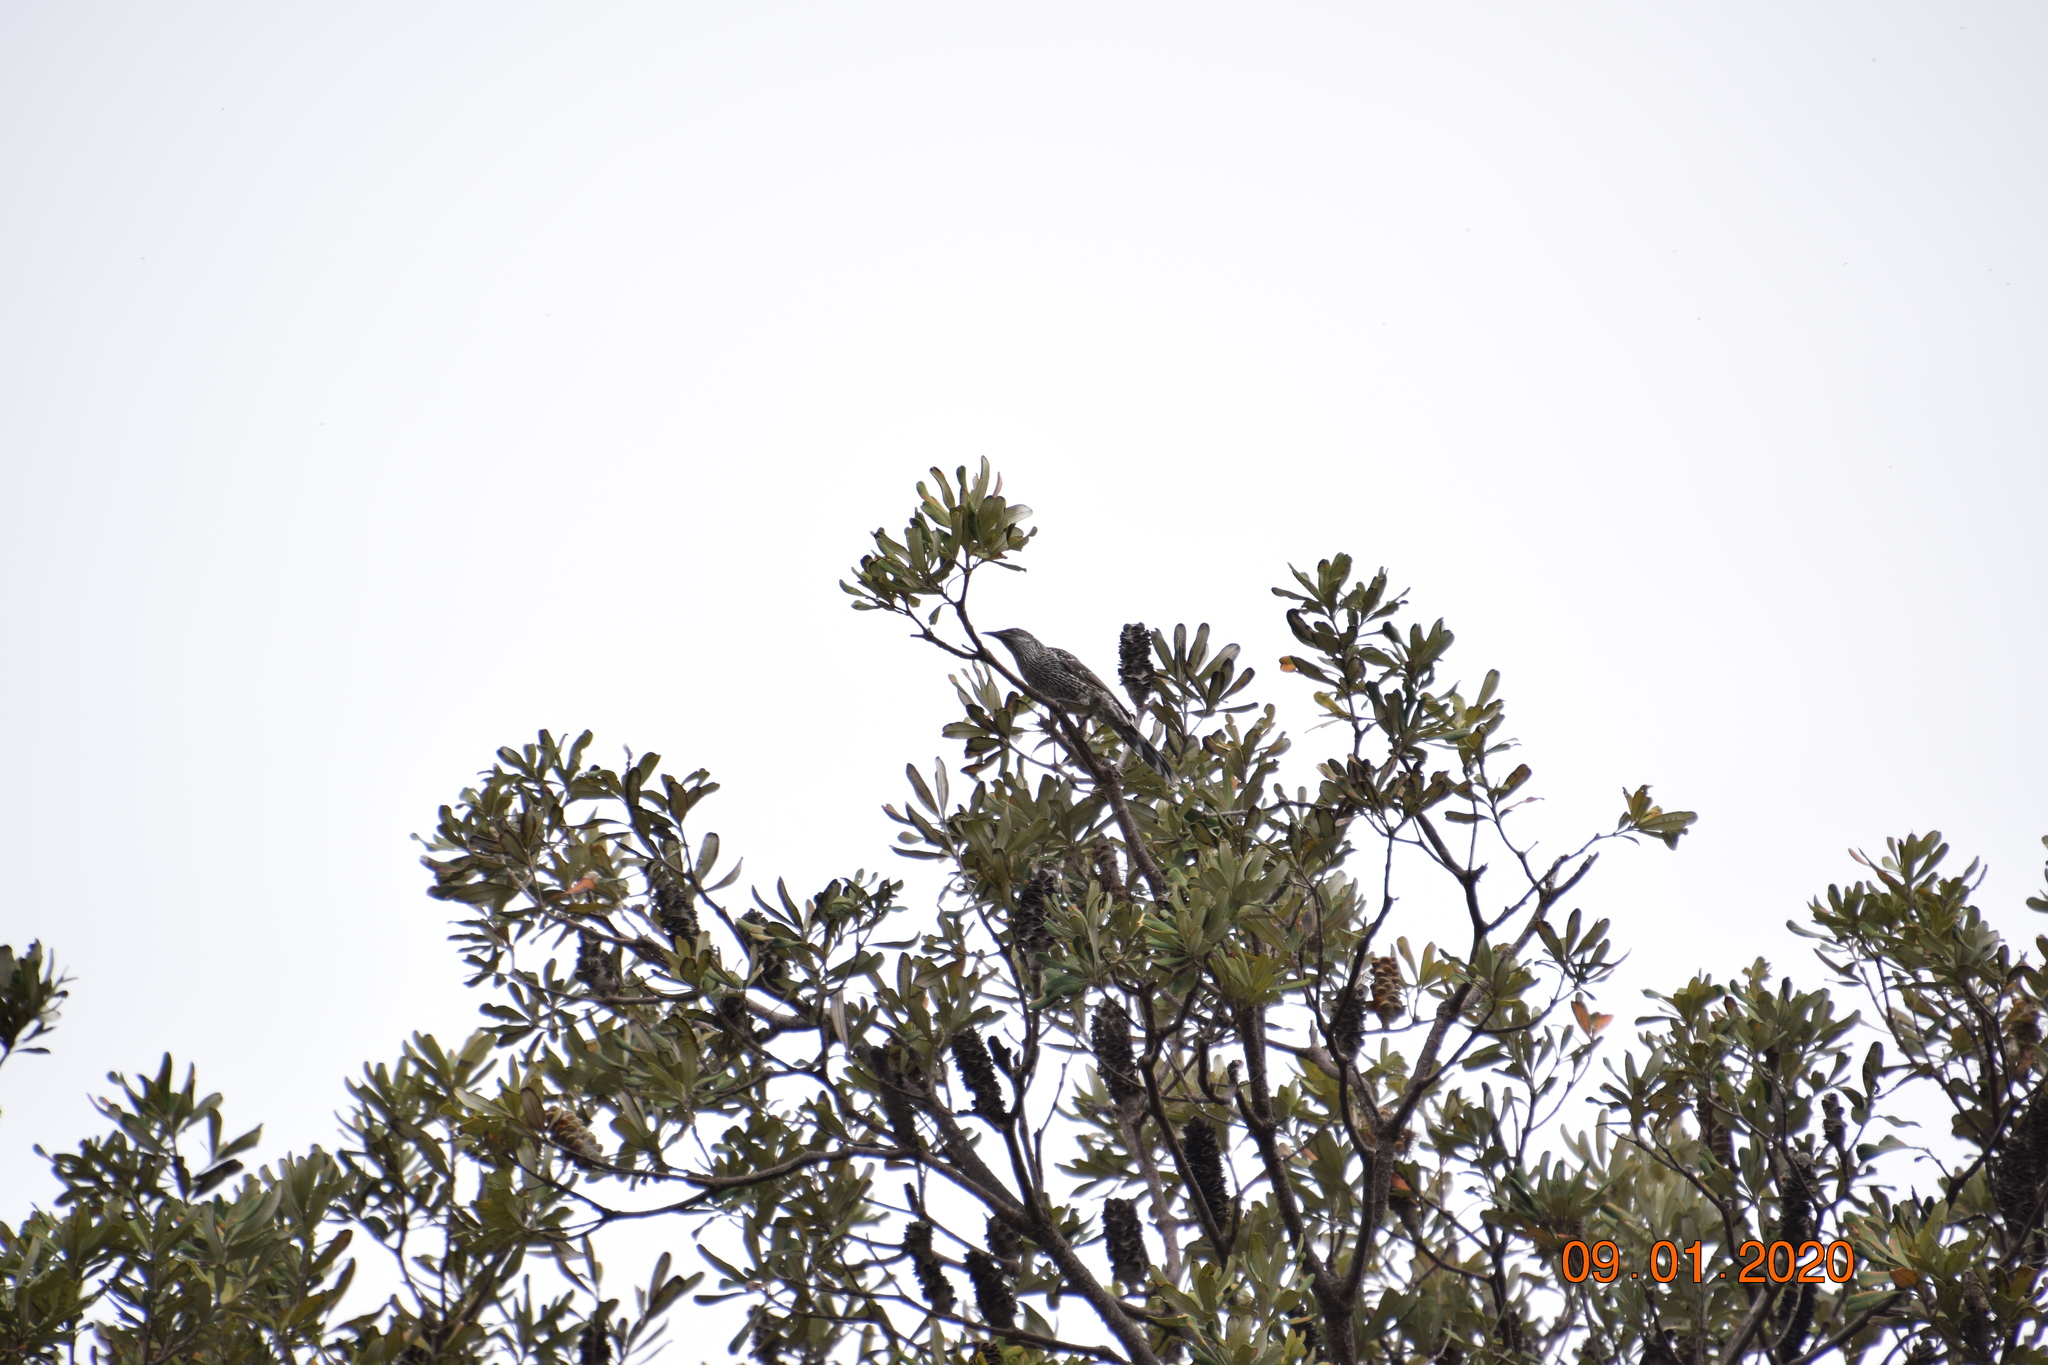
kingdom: Animalia
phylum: Chordata
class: Aves
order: Passeriformes
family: Meliphagidae
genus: Anthochaera
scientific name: Anthochaera chrysoptera
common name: Little wattlebird
